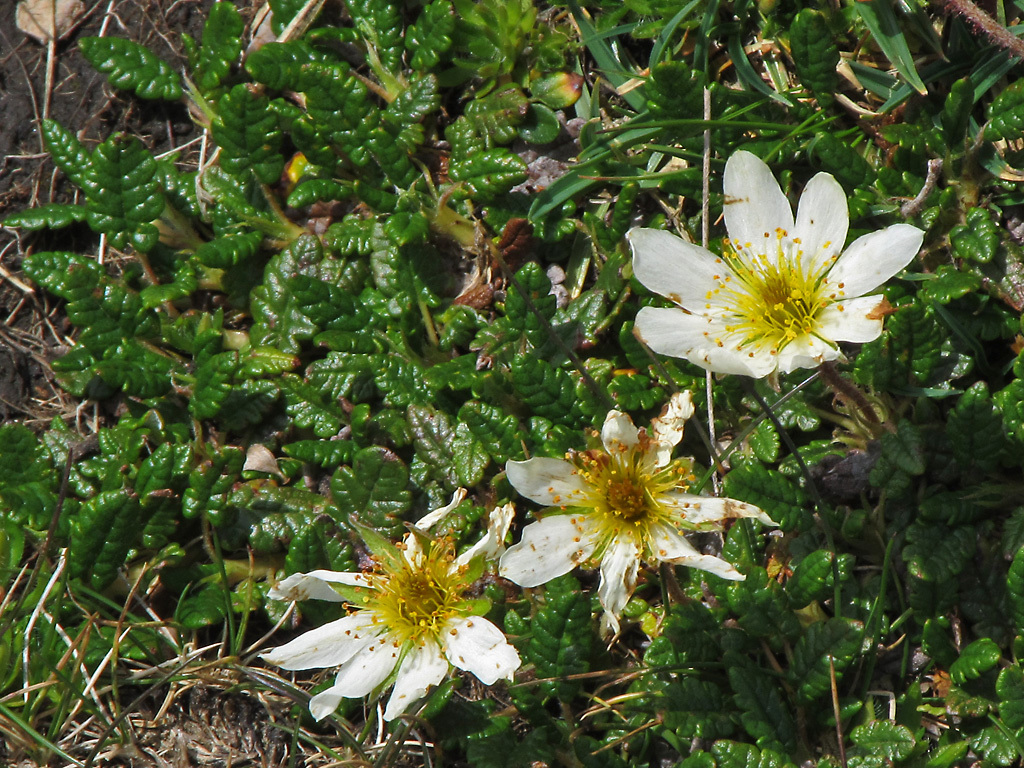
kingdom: Plantae
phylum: Tracheophyta
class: Magnoliopsida
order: Rosales
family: Rosaceae
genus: Dryas
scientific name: Dryas octopetala
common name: Eight-petal mountain-avens
